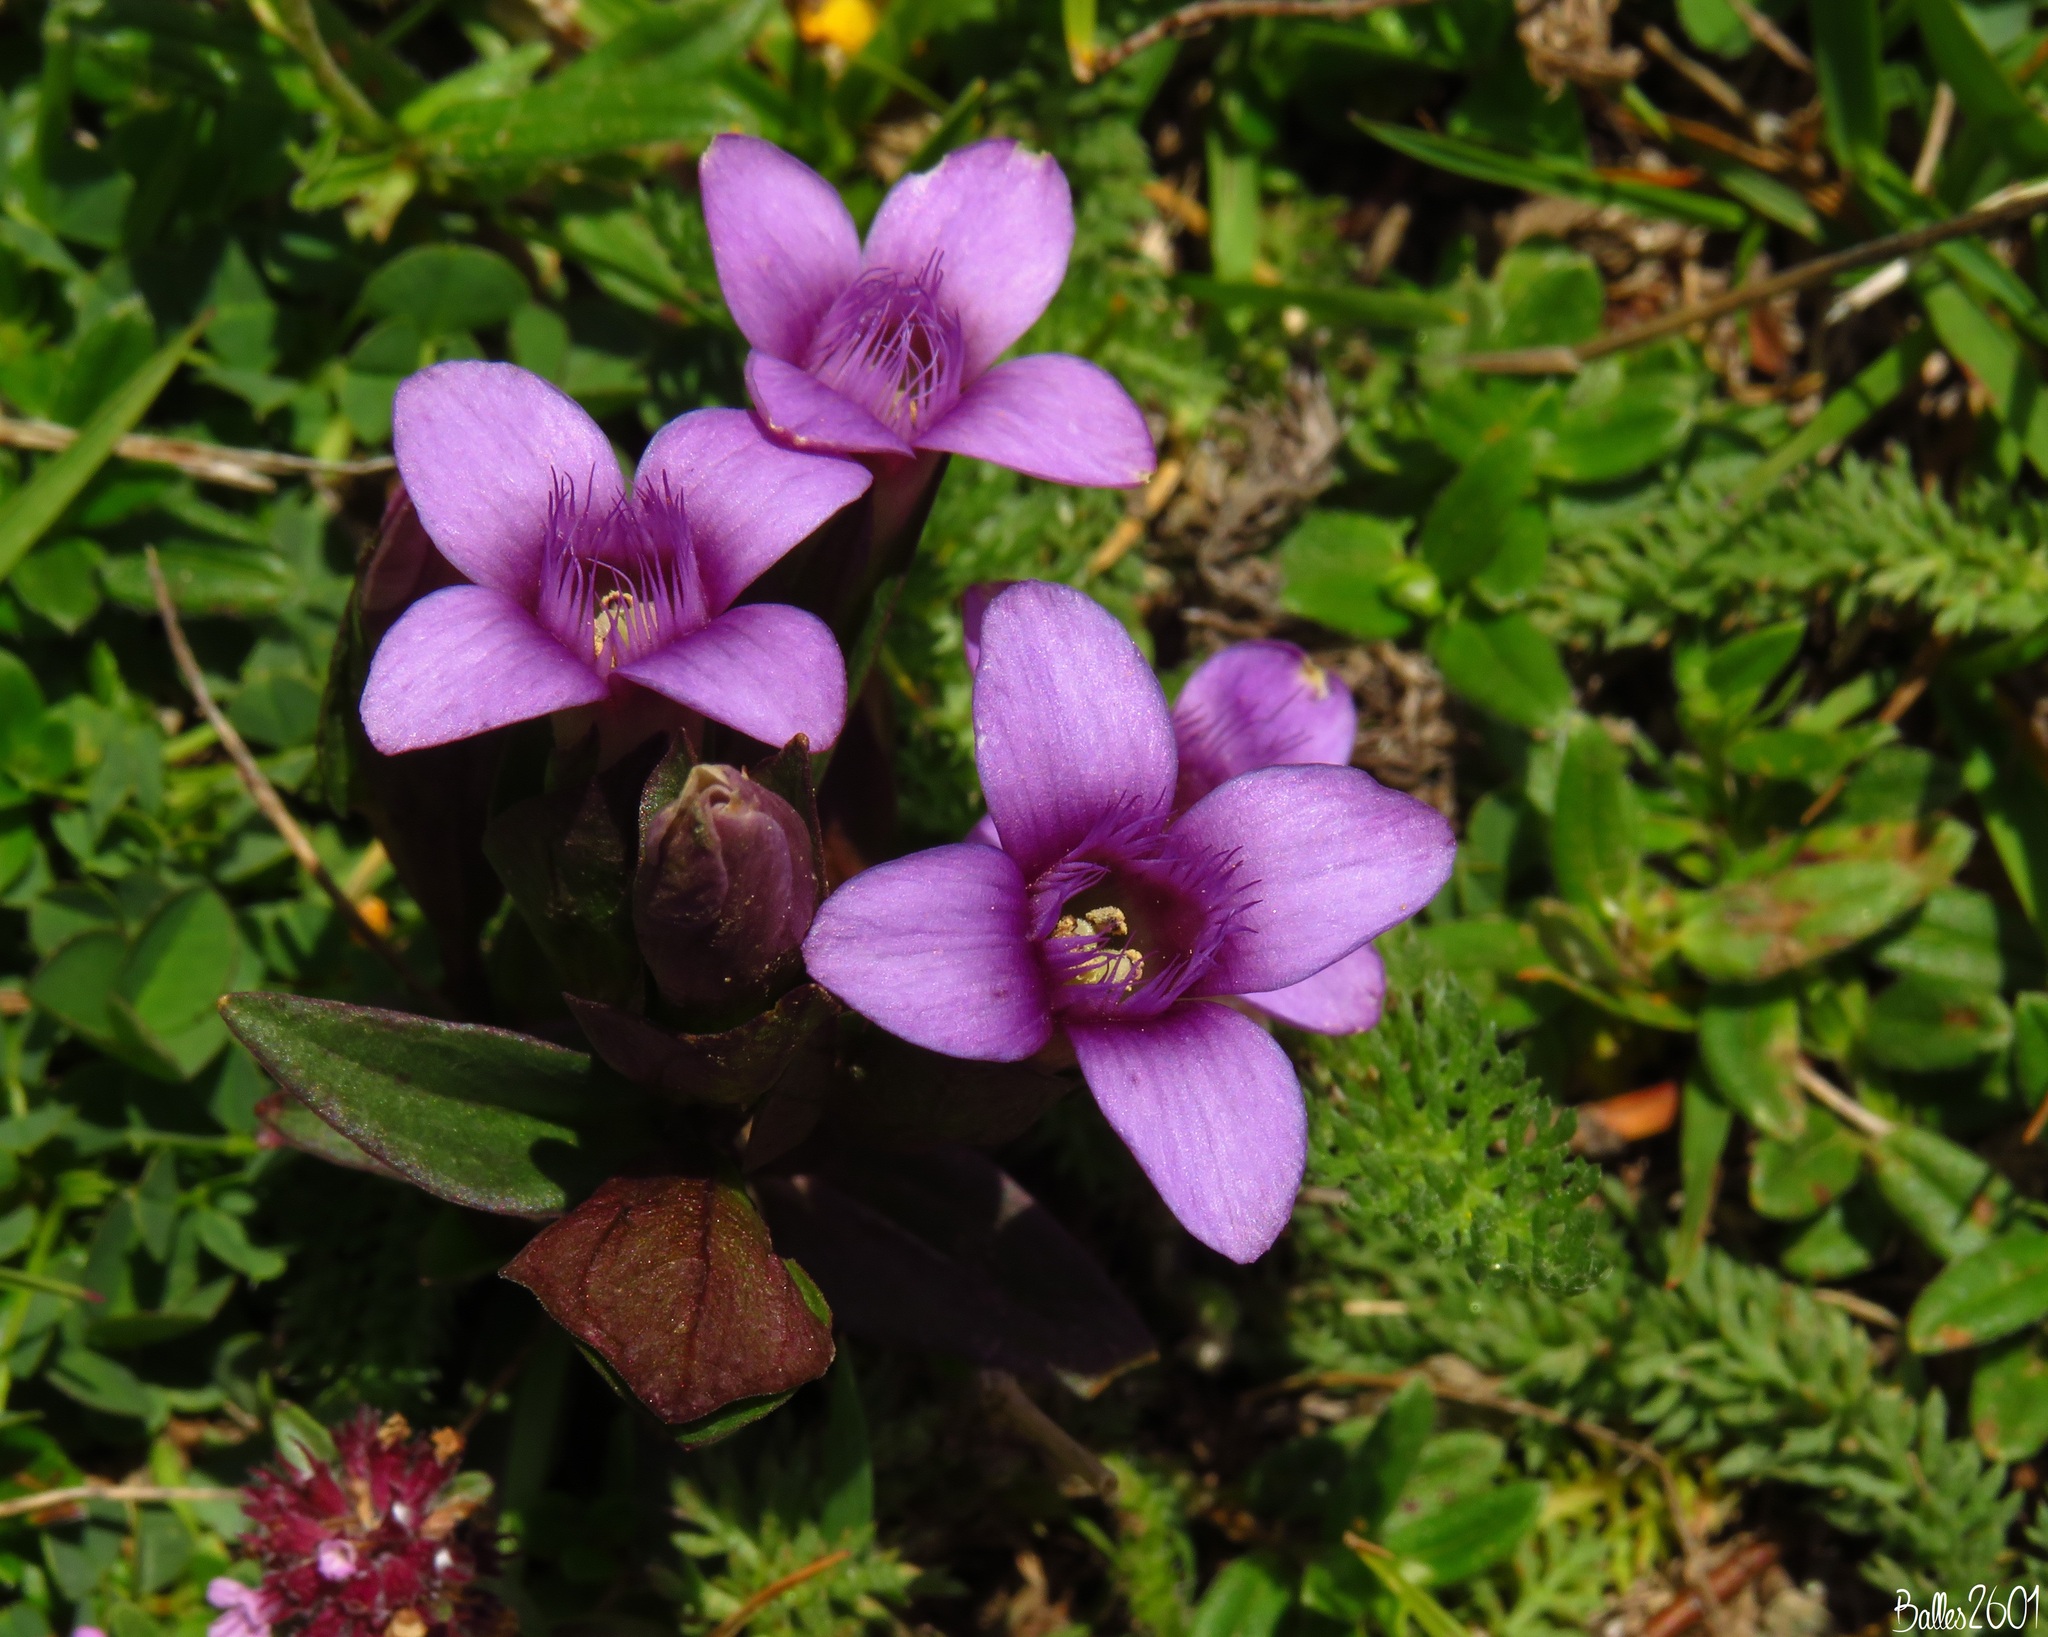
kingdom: Plantae
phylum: Tracheophyta
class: Magnoliopsida
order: Gentianales
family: Gentianaceae
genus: Gentianella
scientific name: Gentianella campestris
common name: Field gentian
